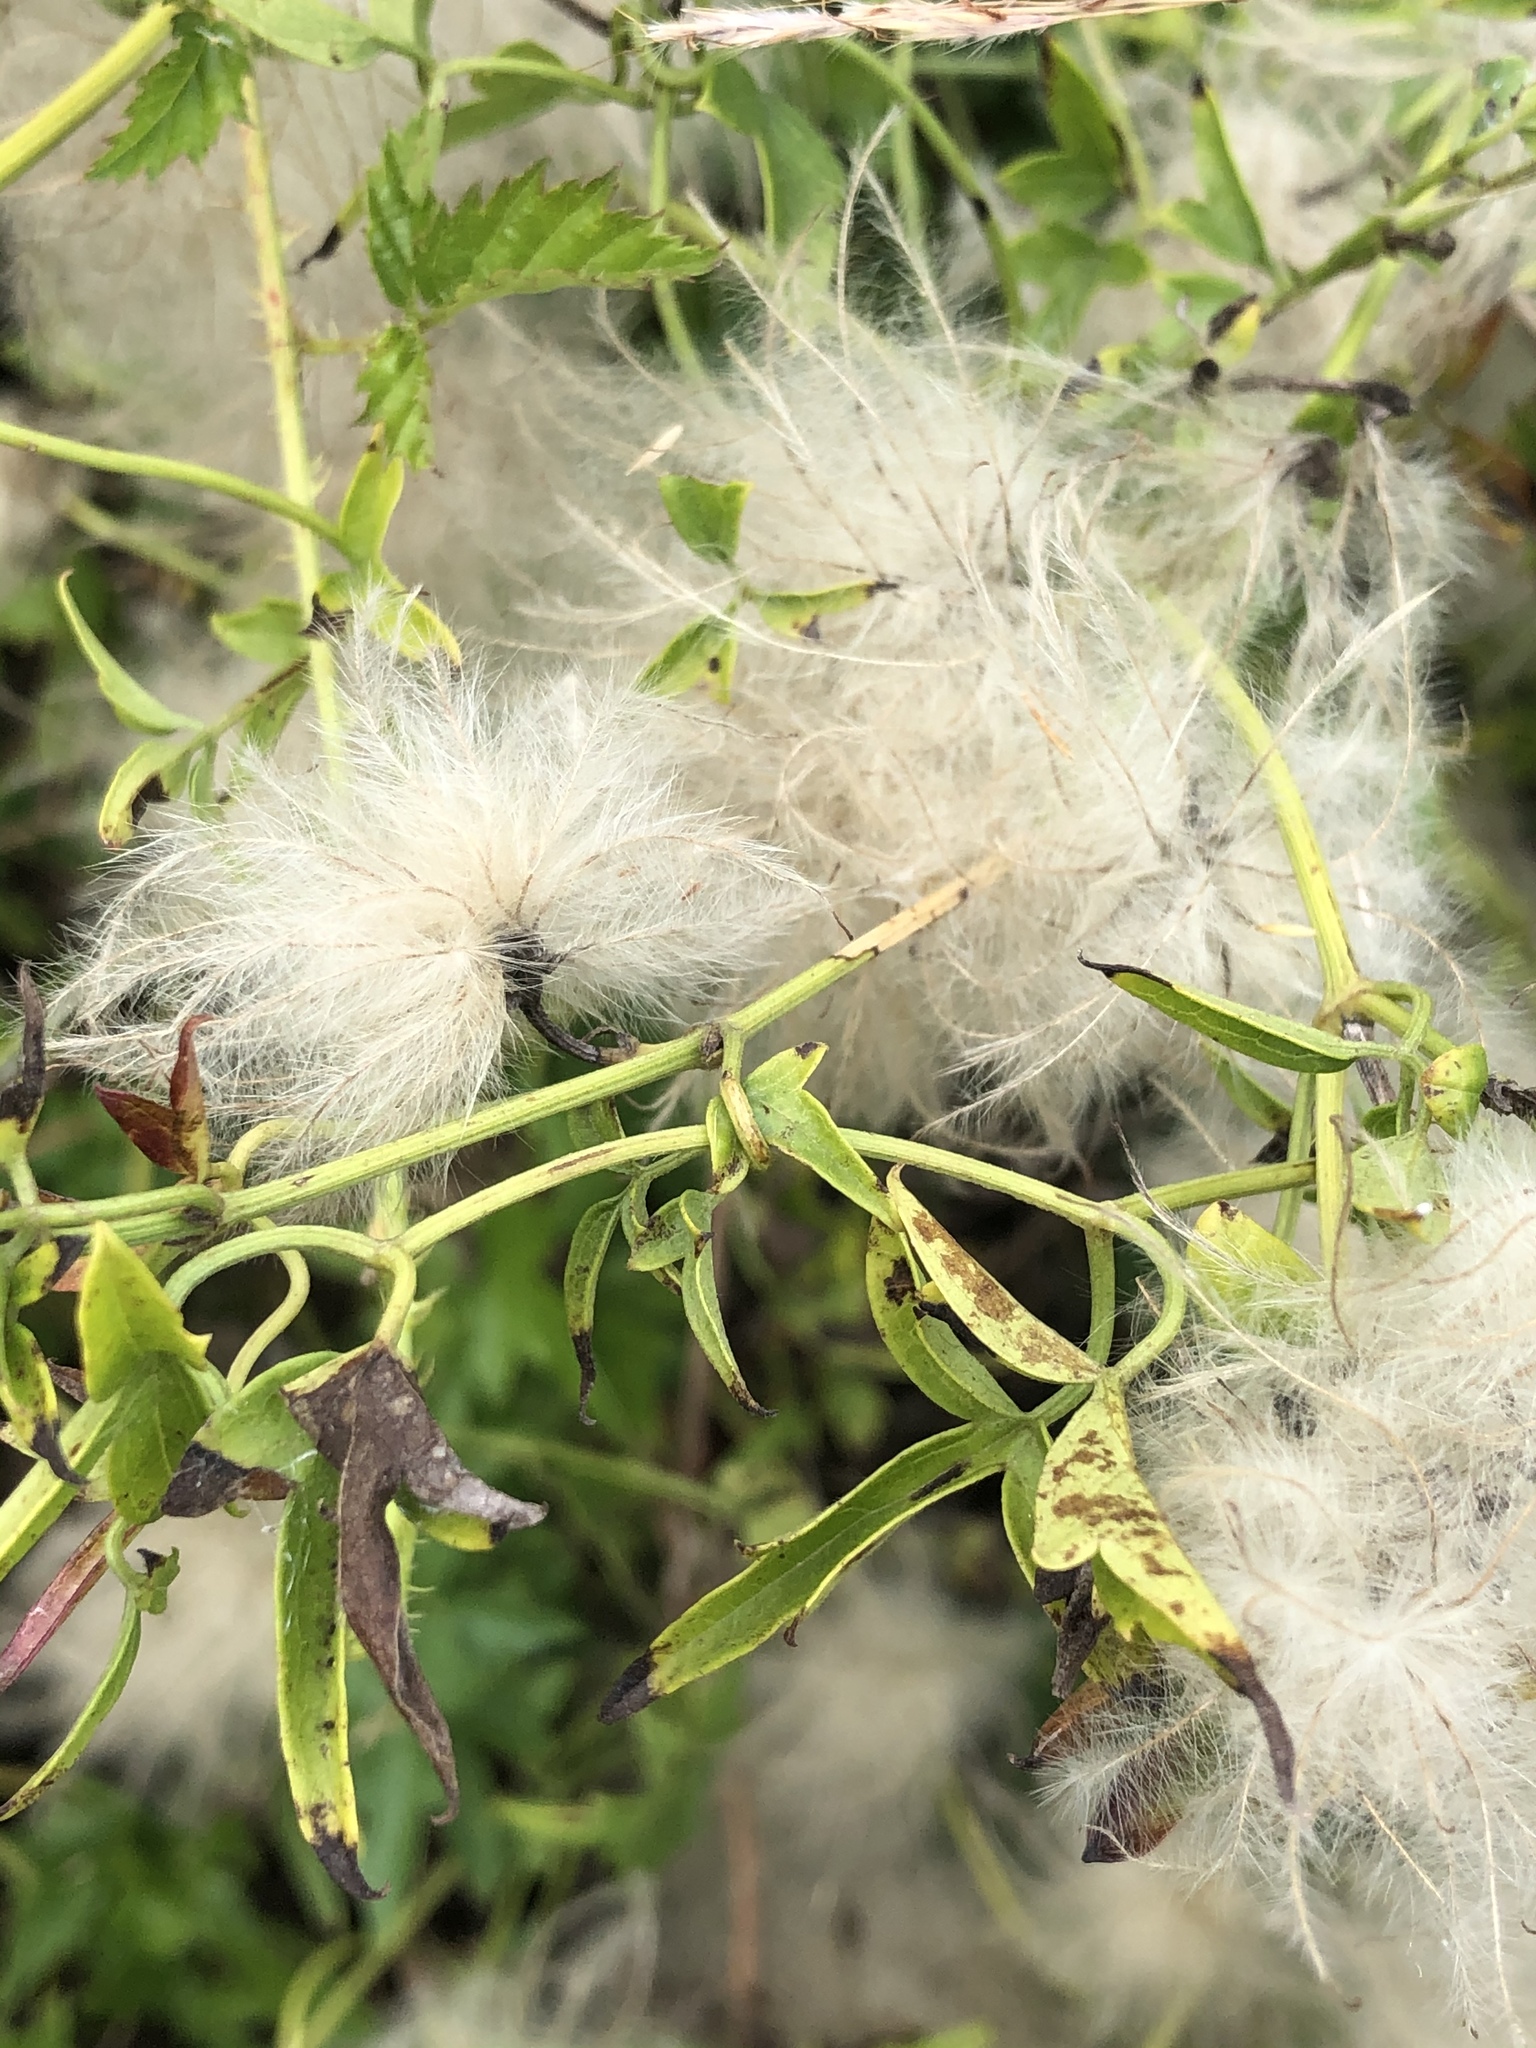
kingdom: Plantae
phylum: Tracheophyta
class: Magnoliopsida
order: Ranunculales
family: Ranunculaceae
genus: Clematis
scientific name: Clematis drummondii
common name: Texas virgin's bower
